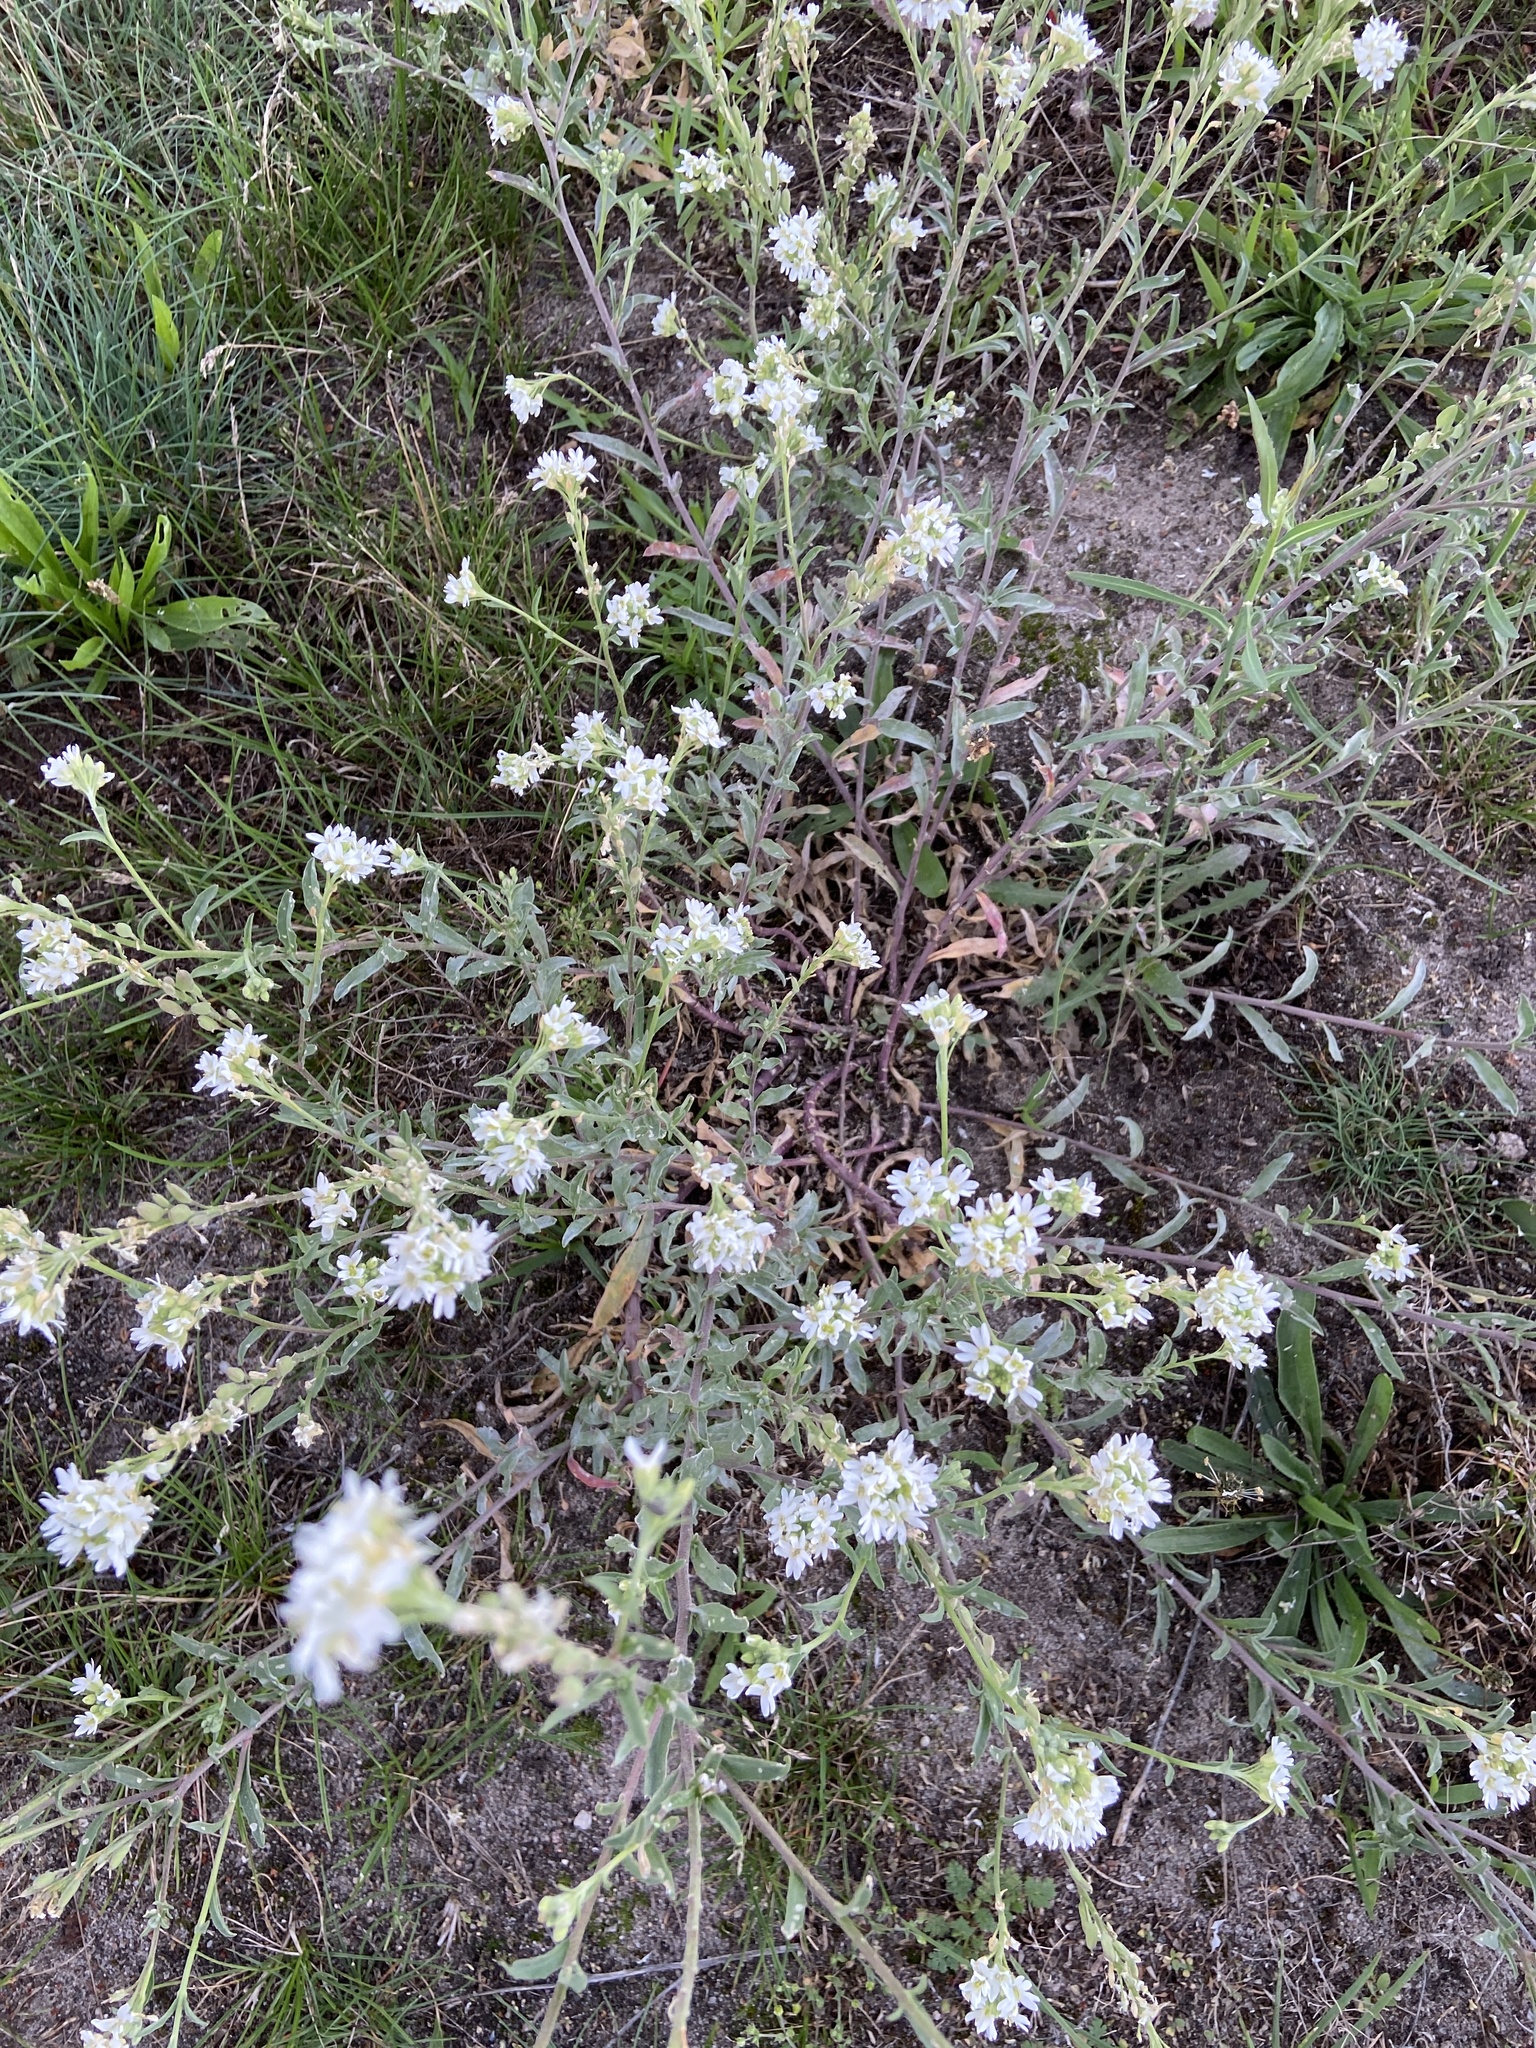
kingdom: Plantae
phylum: Tracheophyta
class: Magnoliopsida
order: Brassicales
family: Brassicaceae
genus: Berteroa
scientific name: Berteroa incana
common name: Hoary alison
